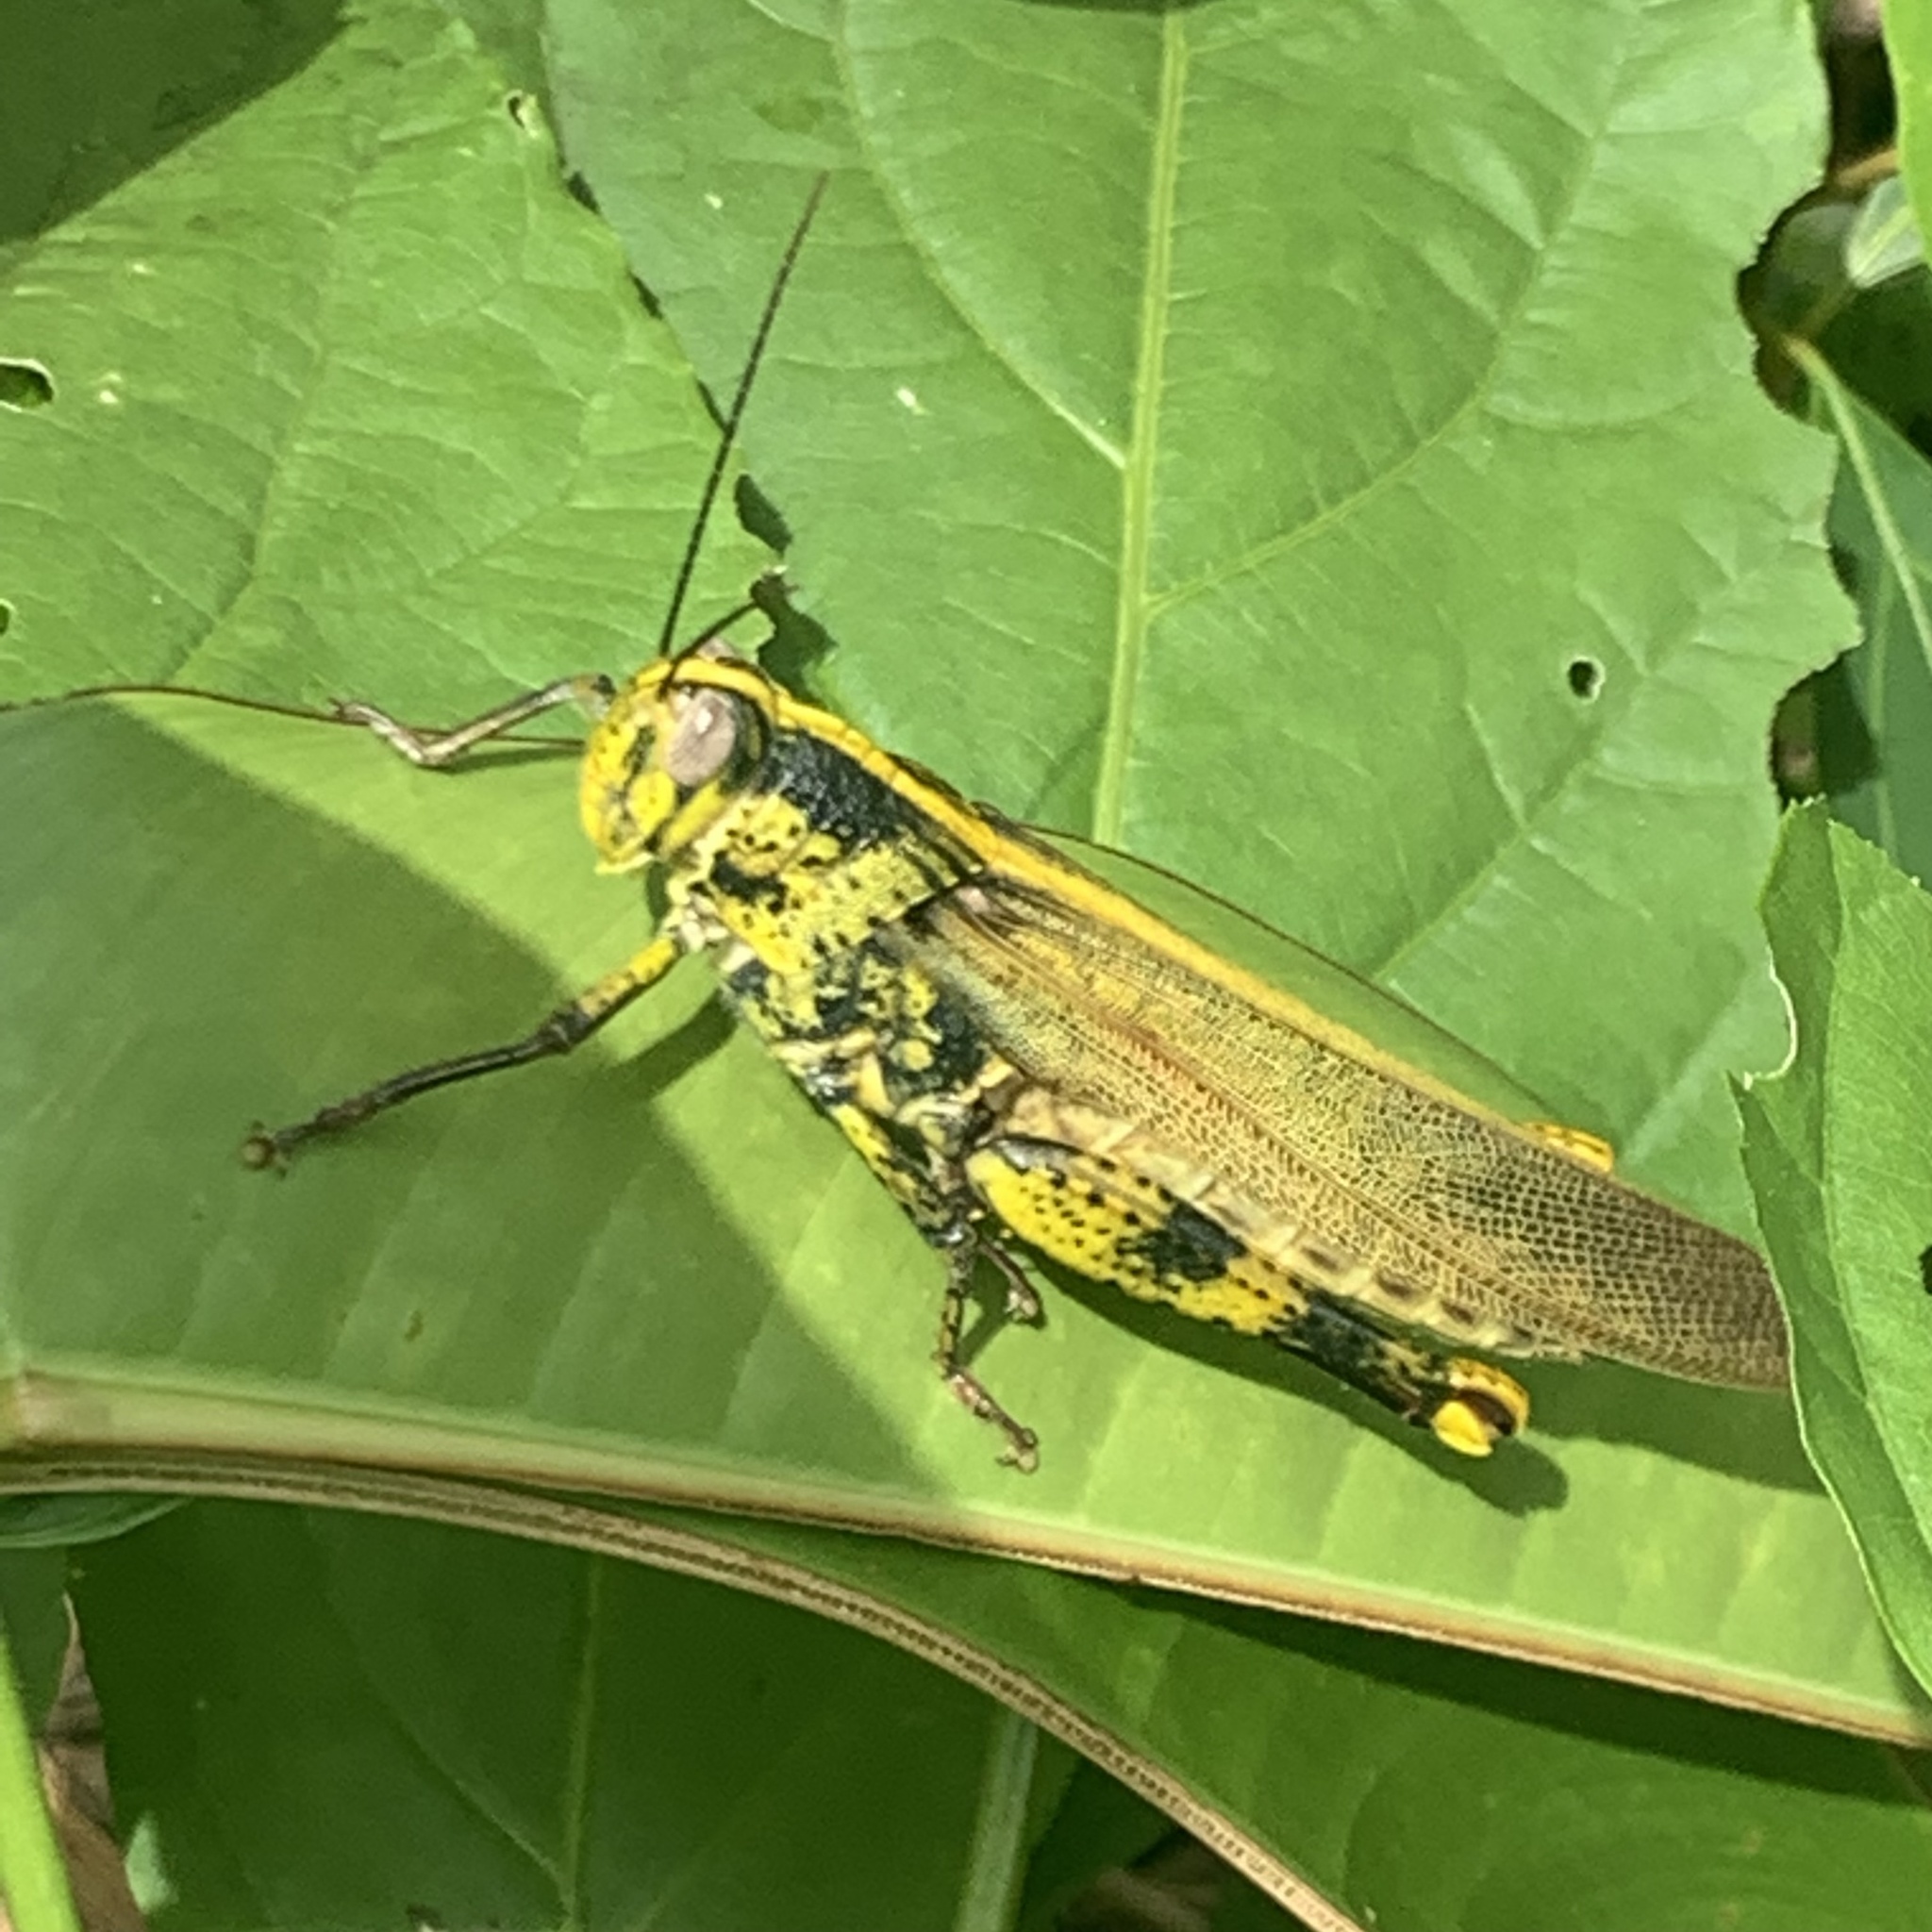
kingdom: Animalia
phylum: Arthropoda
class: Insecta
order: Orthoptera
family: Acrididae
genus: Valanga
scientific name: Valanga nigricornis
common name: Javanese bird grasshopper
